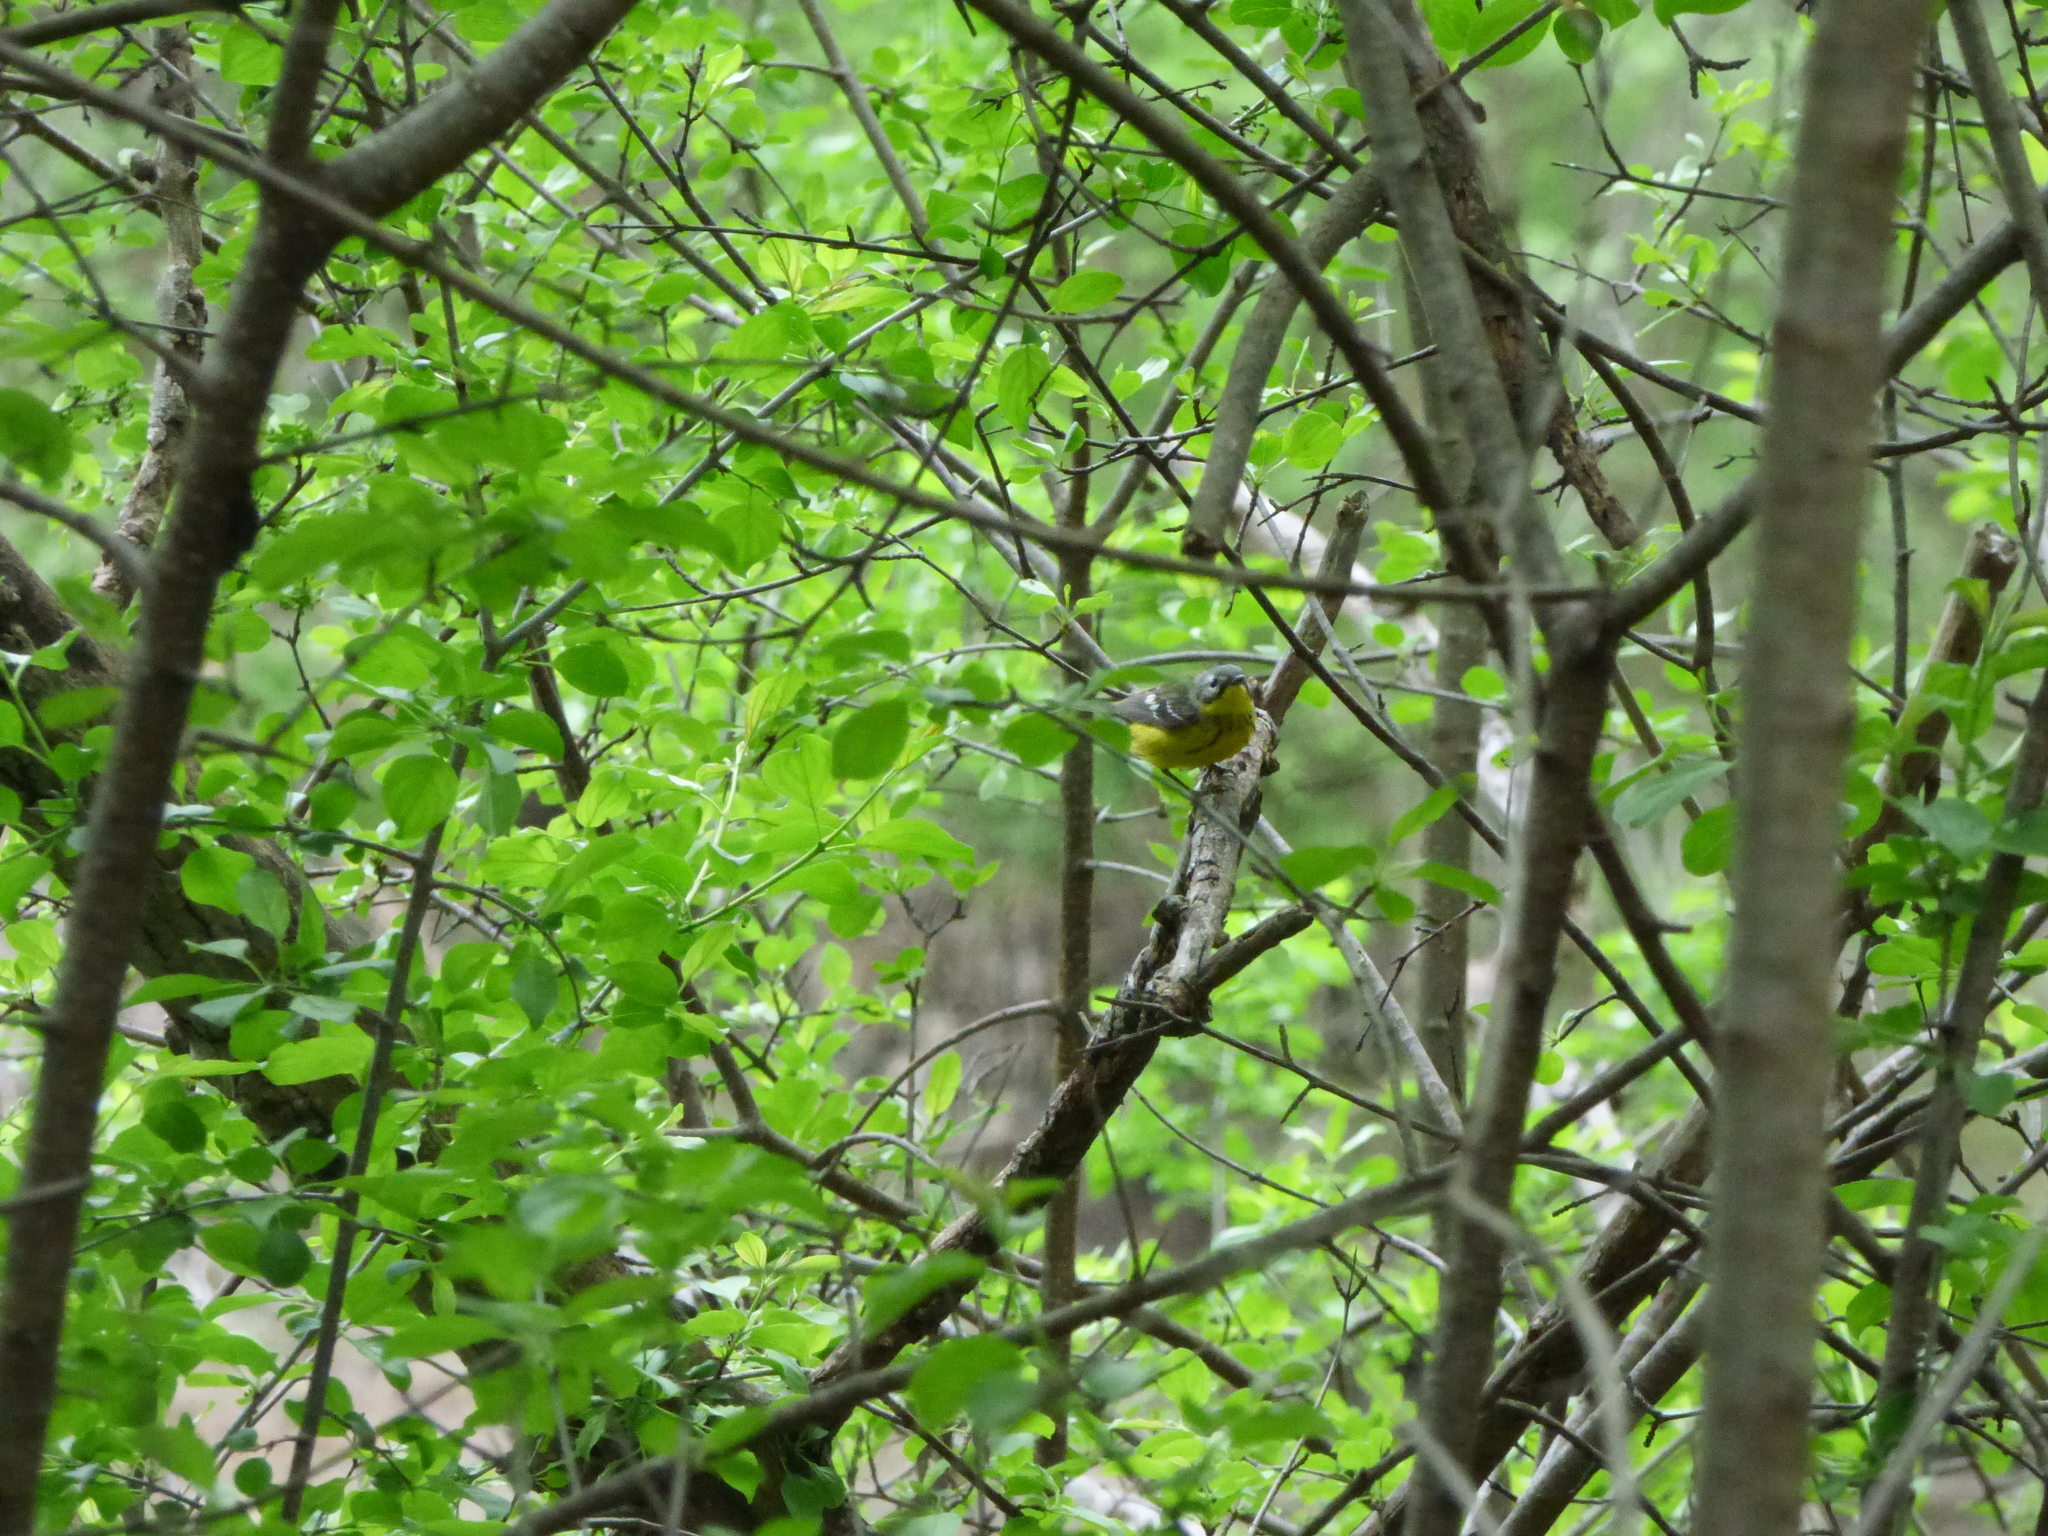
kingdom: Animalia
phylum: Chordata
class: Aves
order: Passeriformes
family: Parulidae
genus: Setophaga
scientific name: Setophaga magnolia
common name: Magnolia warbler
